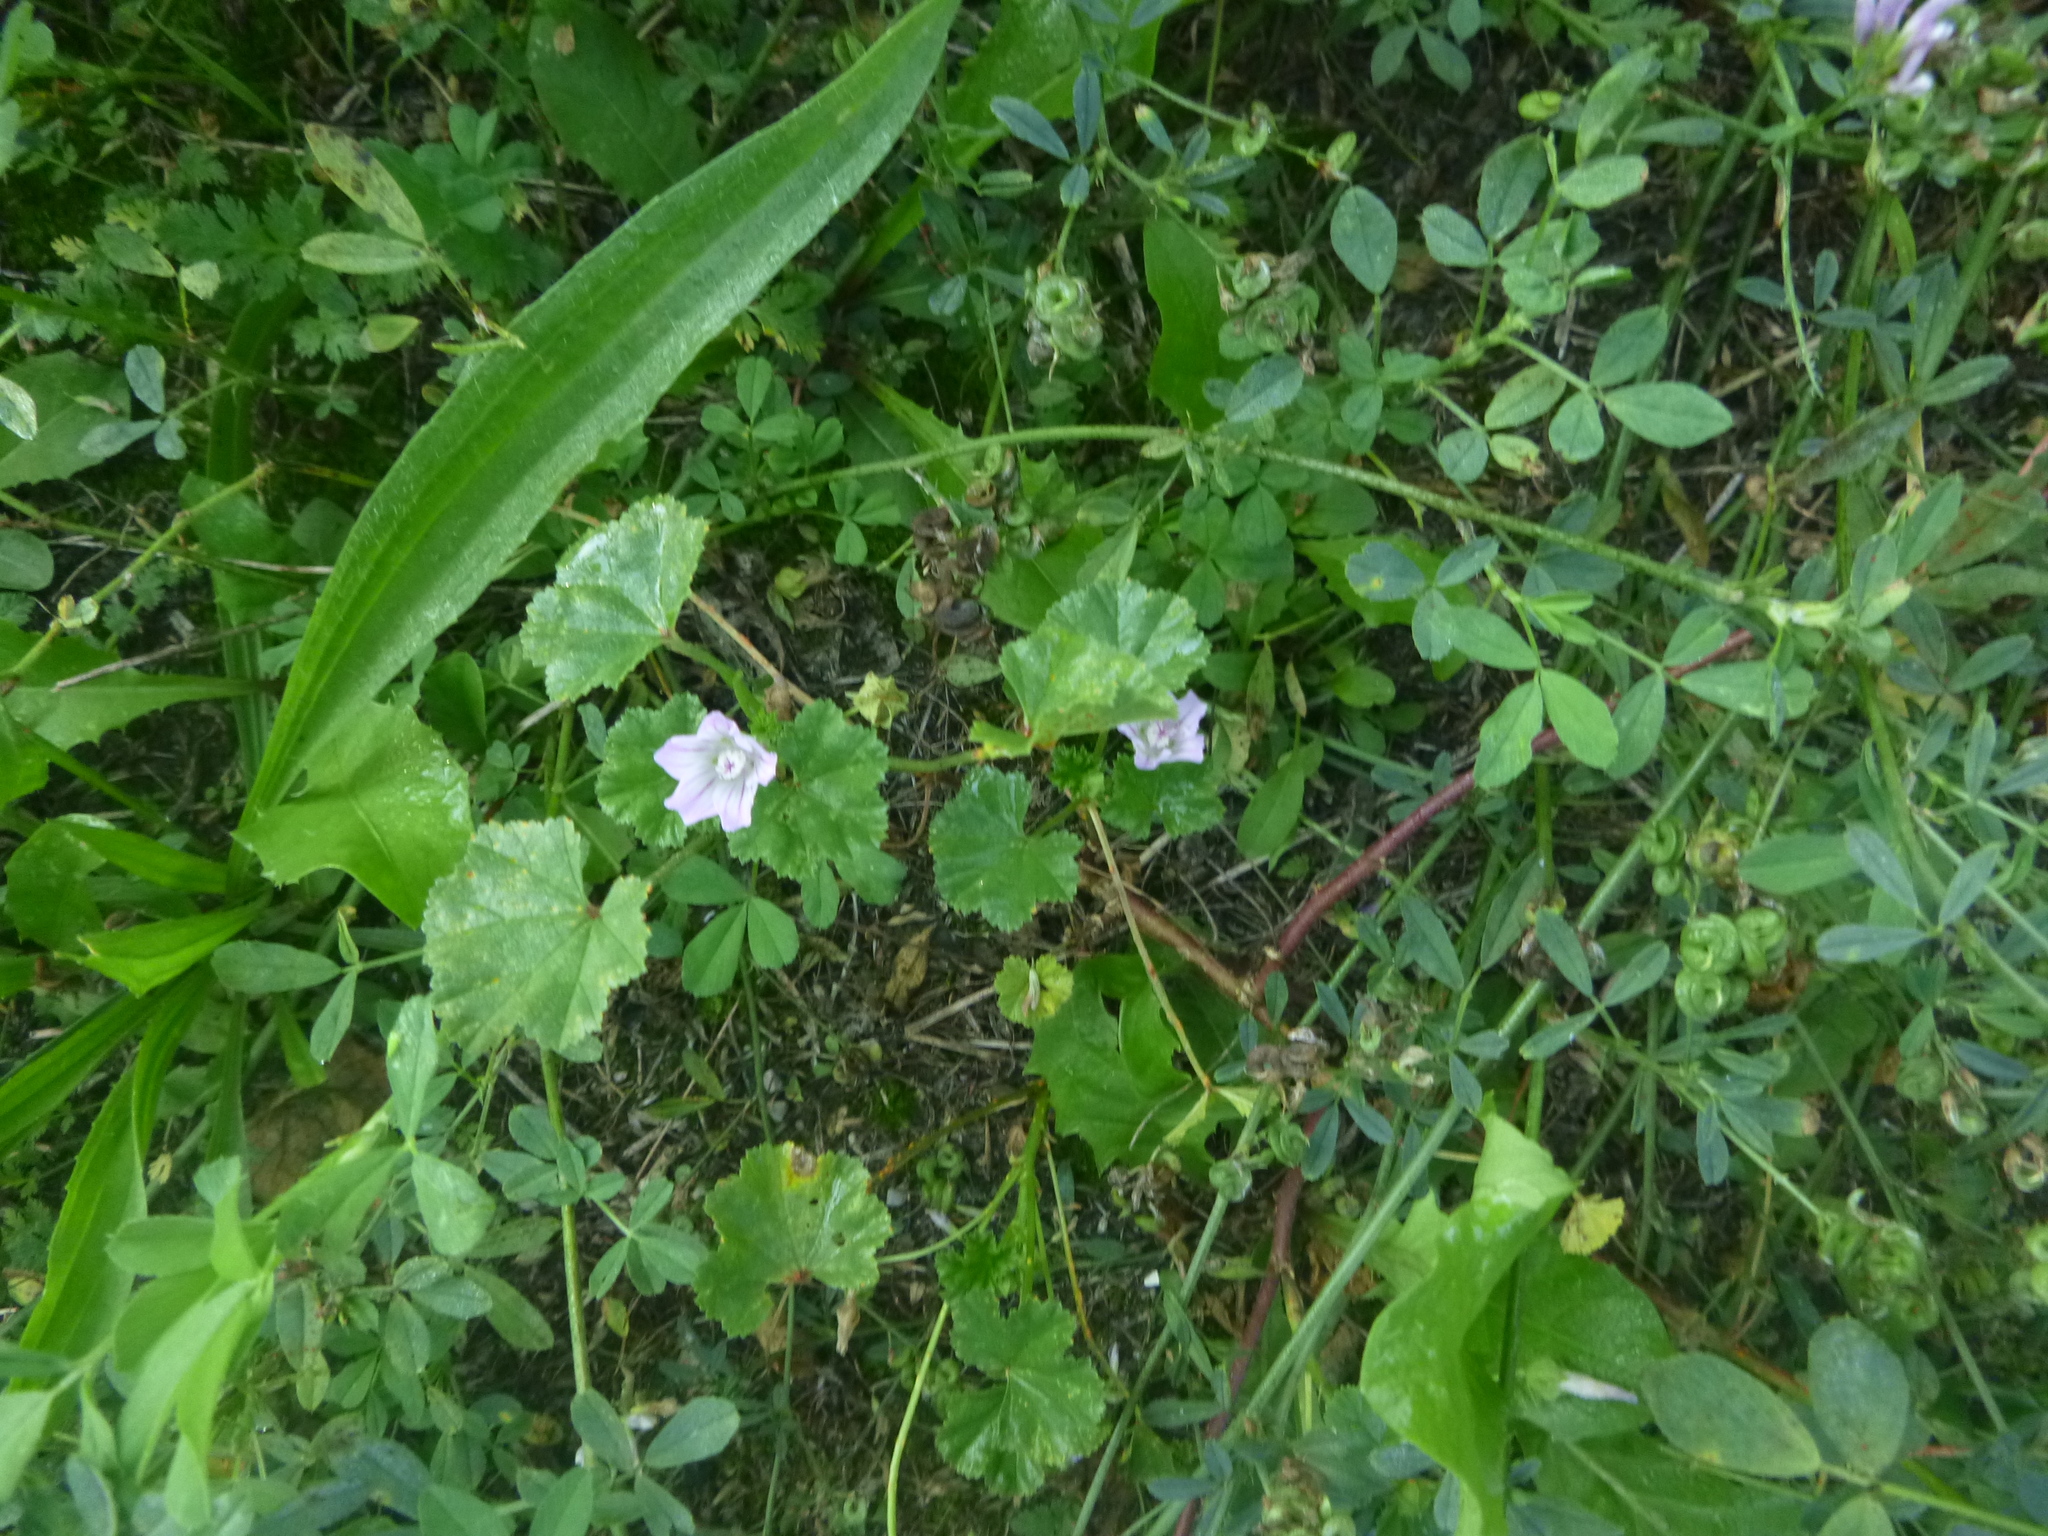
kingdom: Plantae
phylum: Tracheophyta
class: Magnoliopsida
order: Malvales
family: Malvaceae
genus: Malva
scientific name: Malva neglecta
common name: Common mallow
